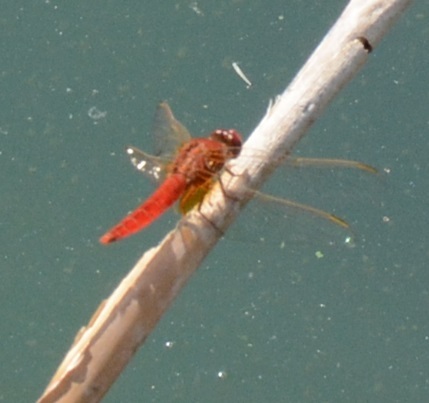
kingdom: Animalia
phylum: Arthropoda
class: Insecta
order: Odonata
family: Libellulidae
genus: Crocothemis
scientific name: Crocothemis erythraea
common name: Scarlet dragonfly
